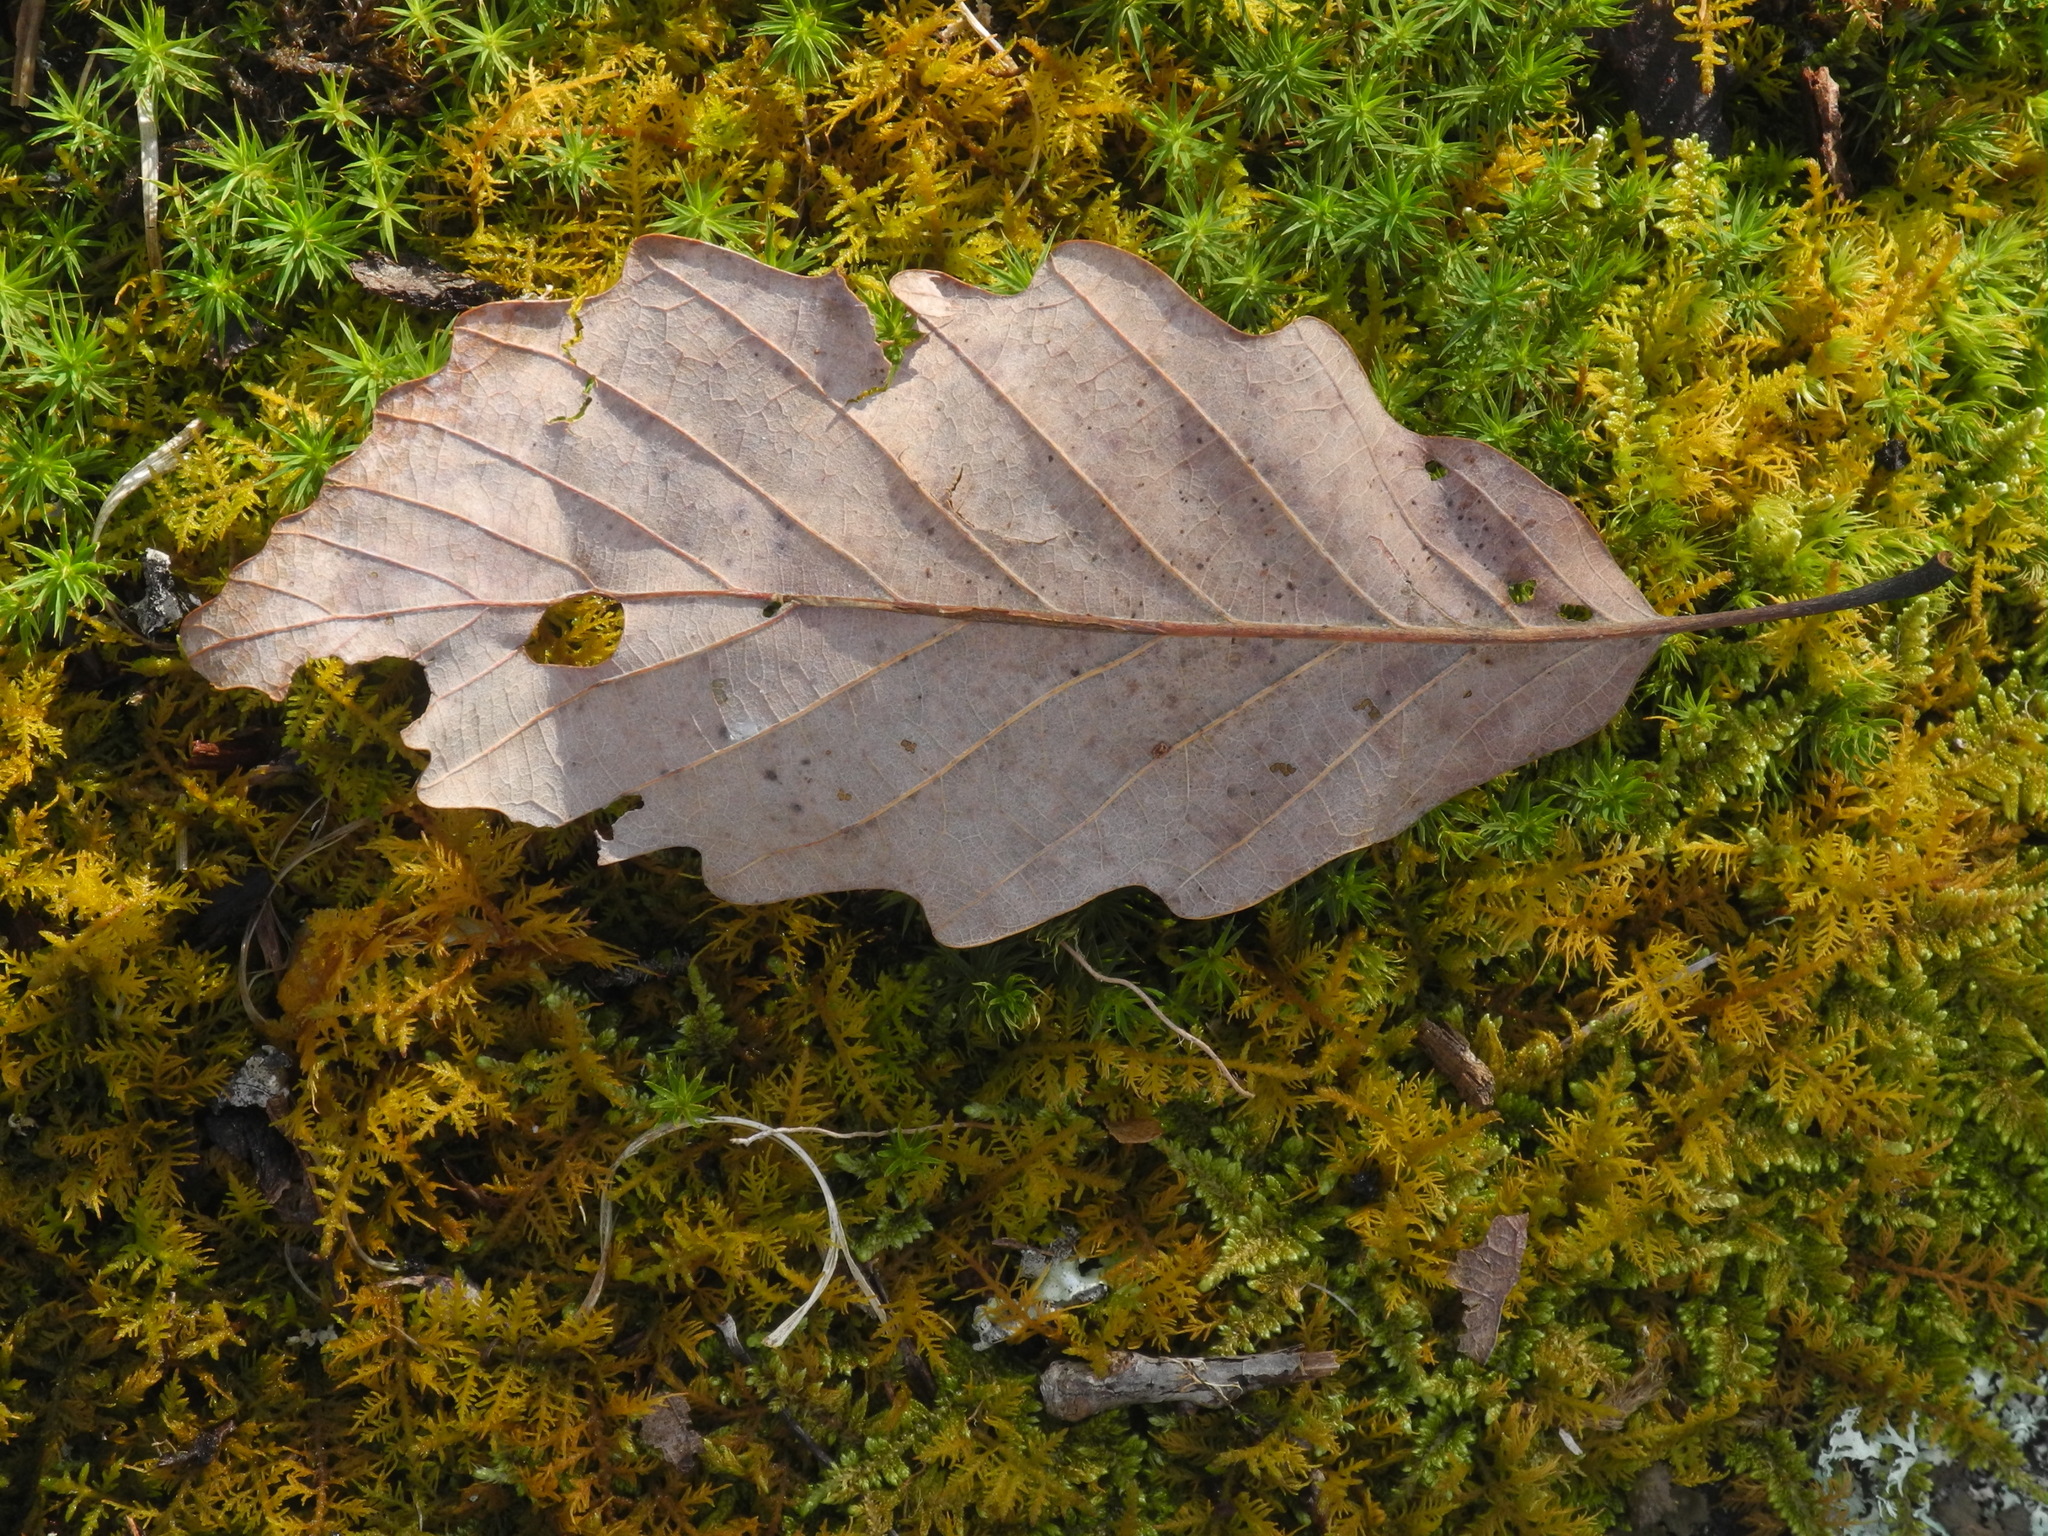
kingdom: Plantae
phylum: Tracheophyta
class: Magnoliopsida
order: Fagales
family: Fagaceae
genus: Quercus
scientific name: Quercus montana
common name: Chestnut oak
